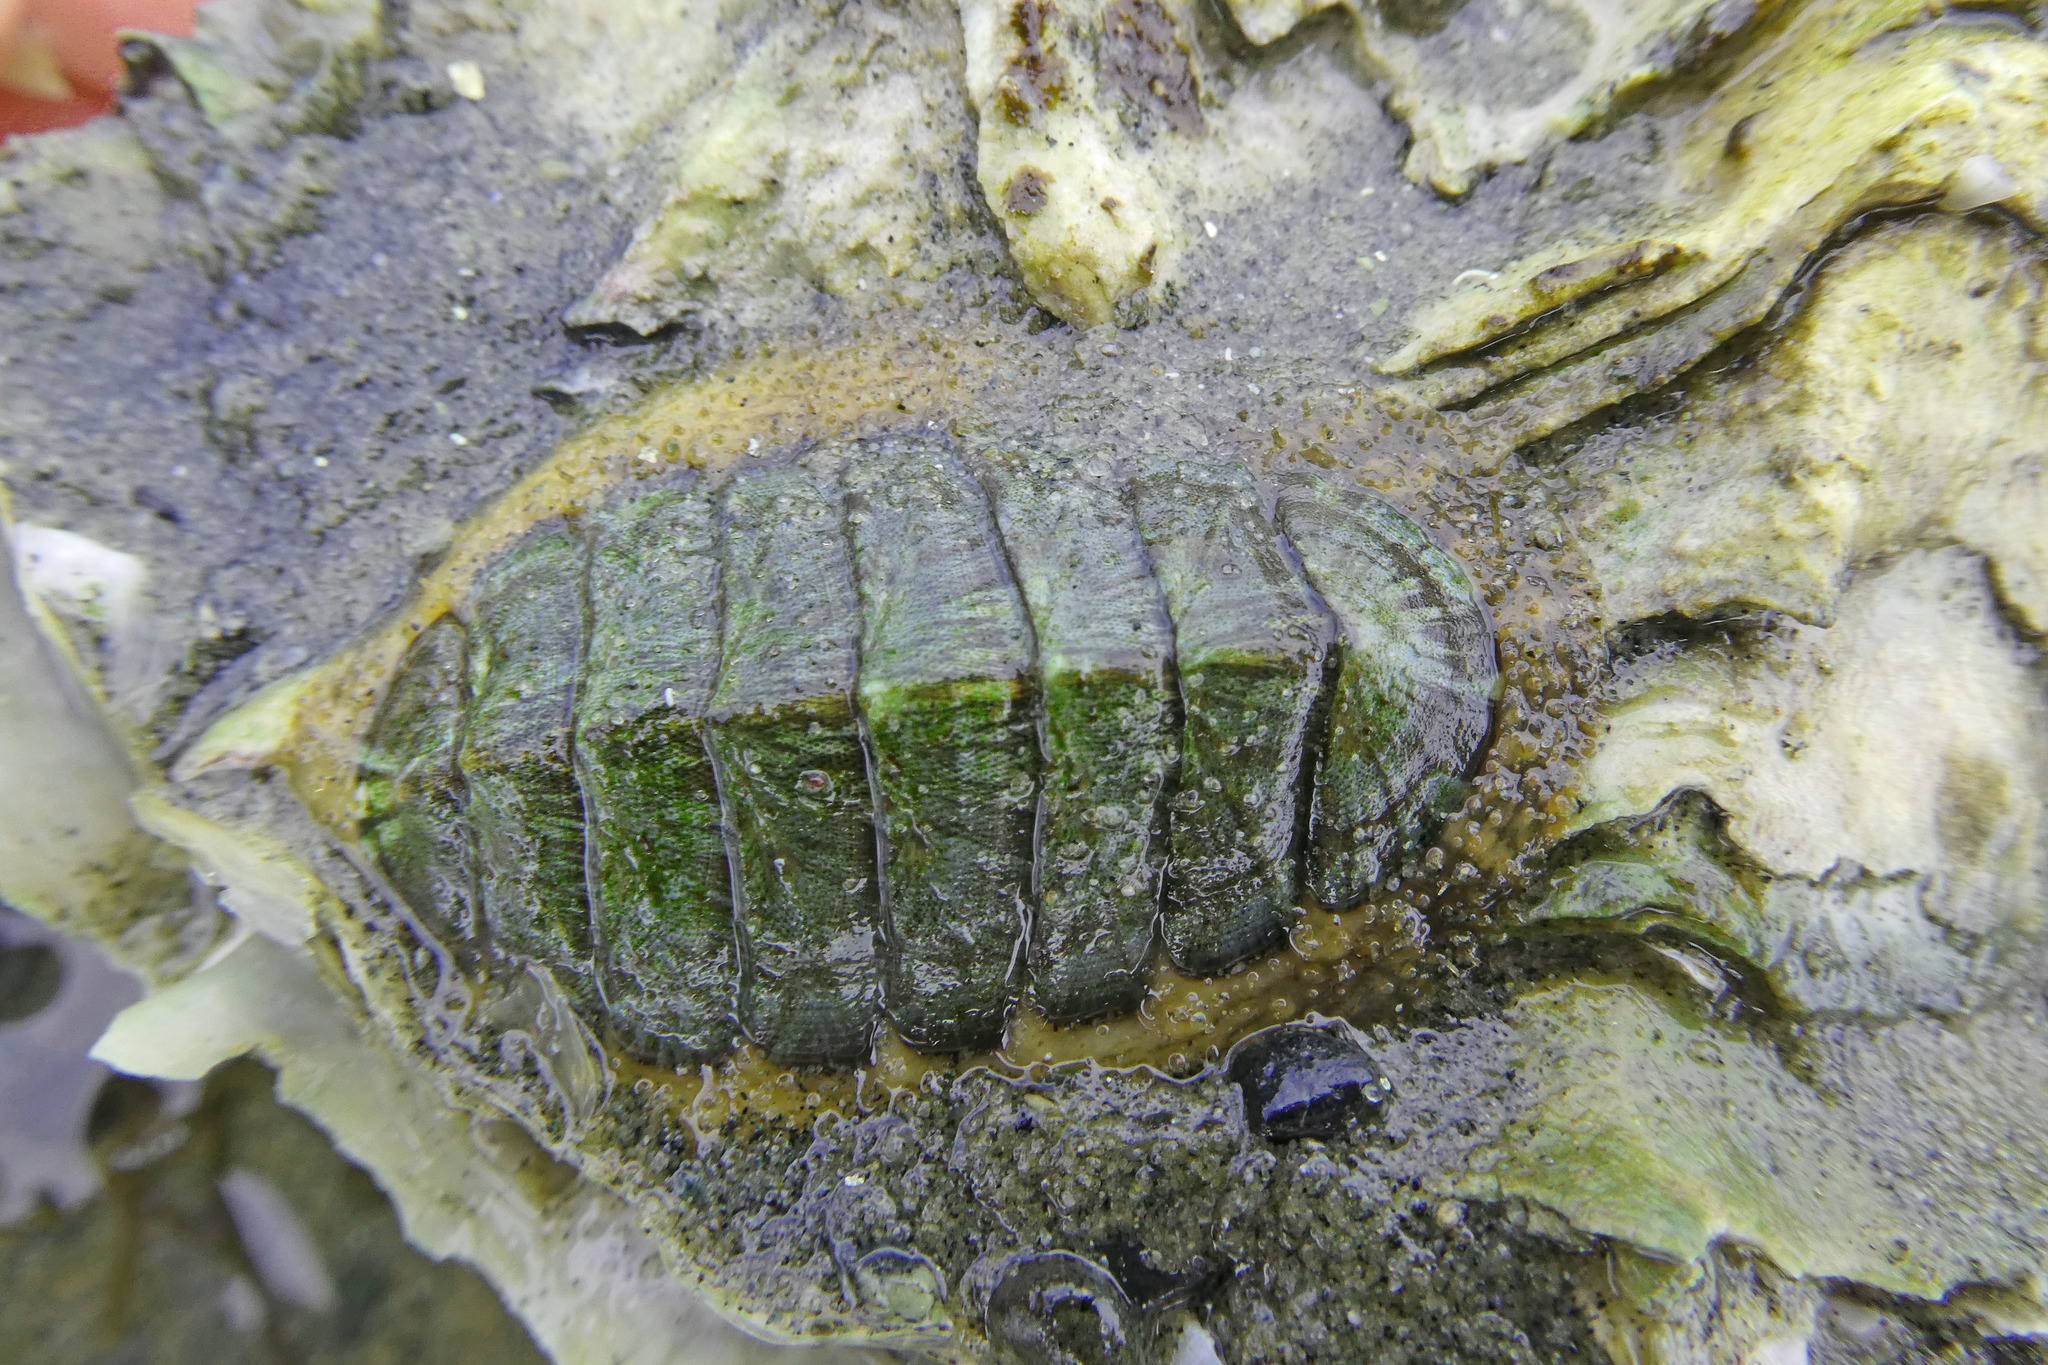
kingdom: Animalia
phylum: Mollusca
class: Polyplacophora
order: Chitonida
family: Mopaliidae
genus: Mopalia
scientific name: Mopalia lignosa
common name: Woody chiton
